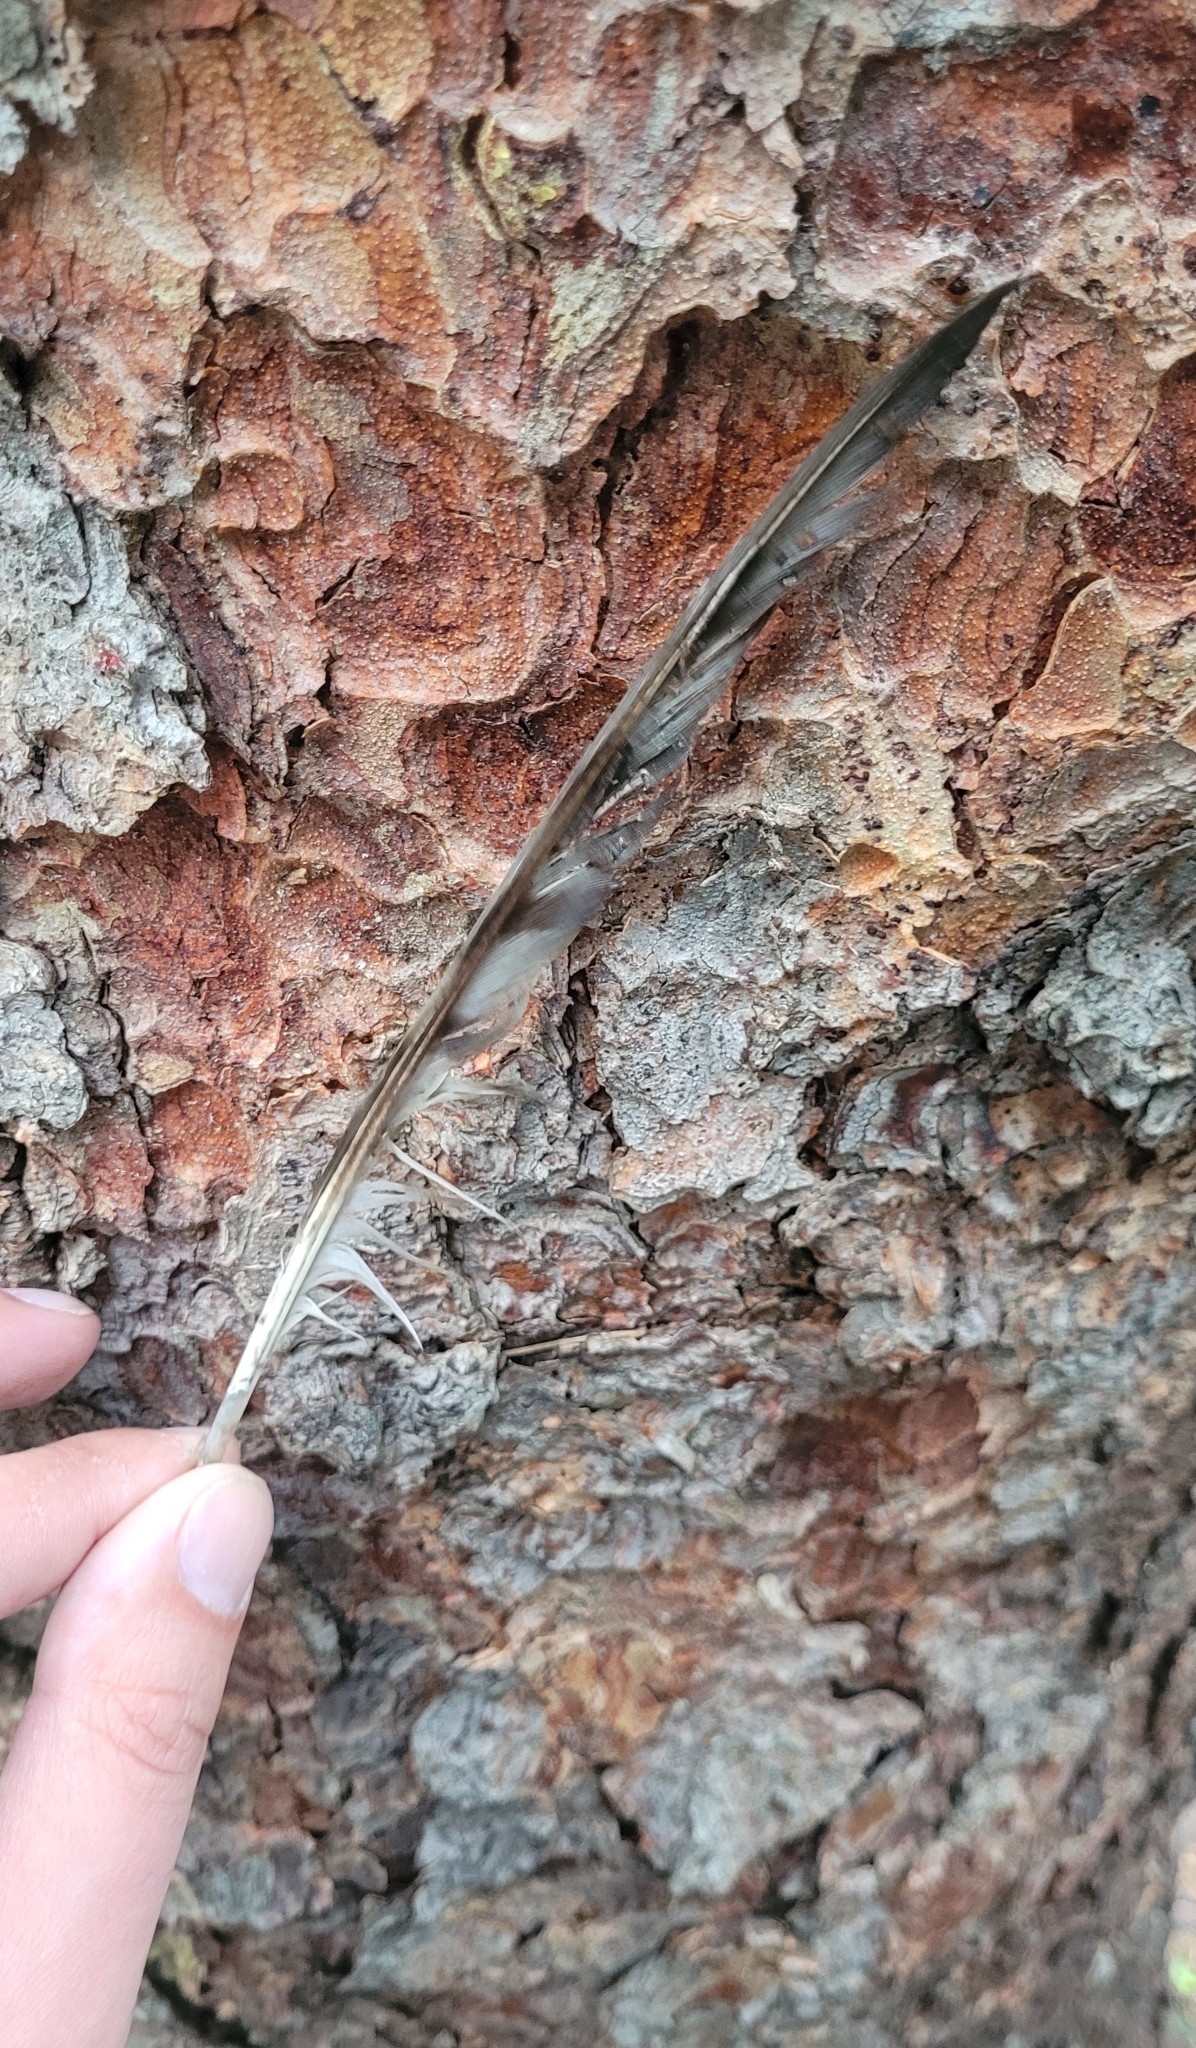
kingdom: Animalia
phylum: Chordata
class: Aves
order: Accipitriformes
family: Accipitridae
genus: Accipiter
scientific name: Accipiter nisus
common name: Eurasian sparrowhawk
